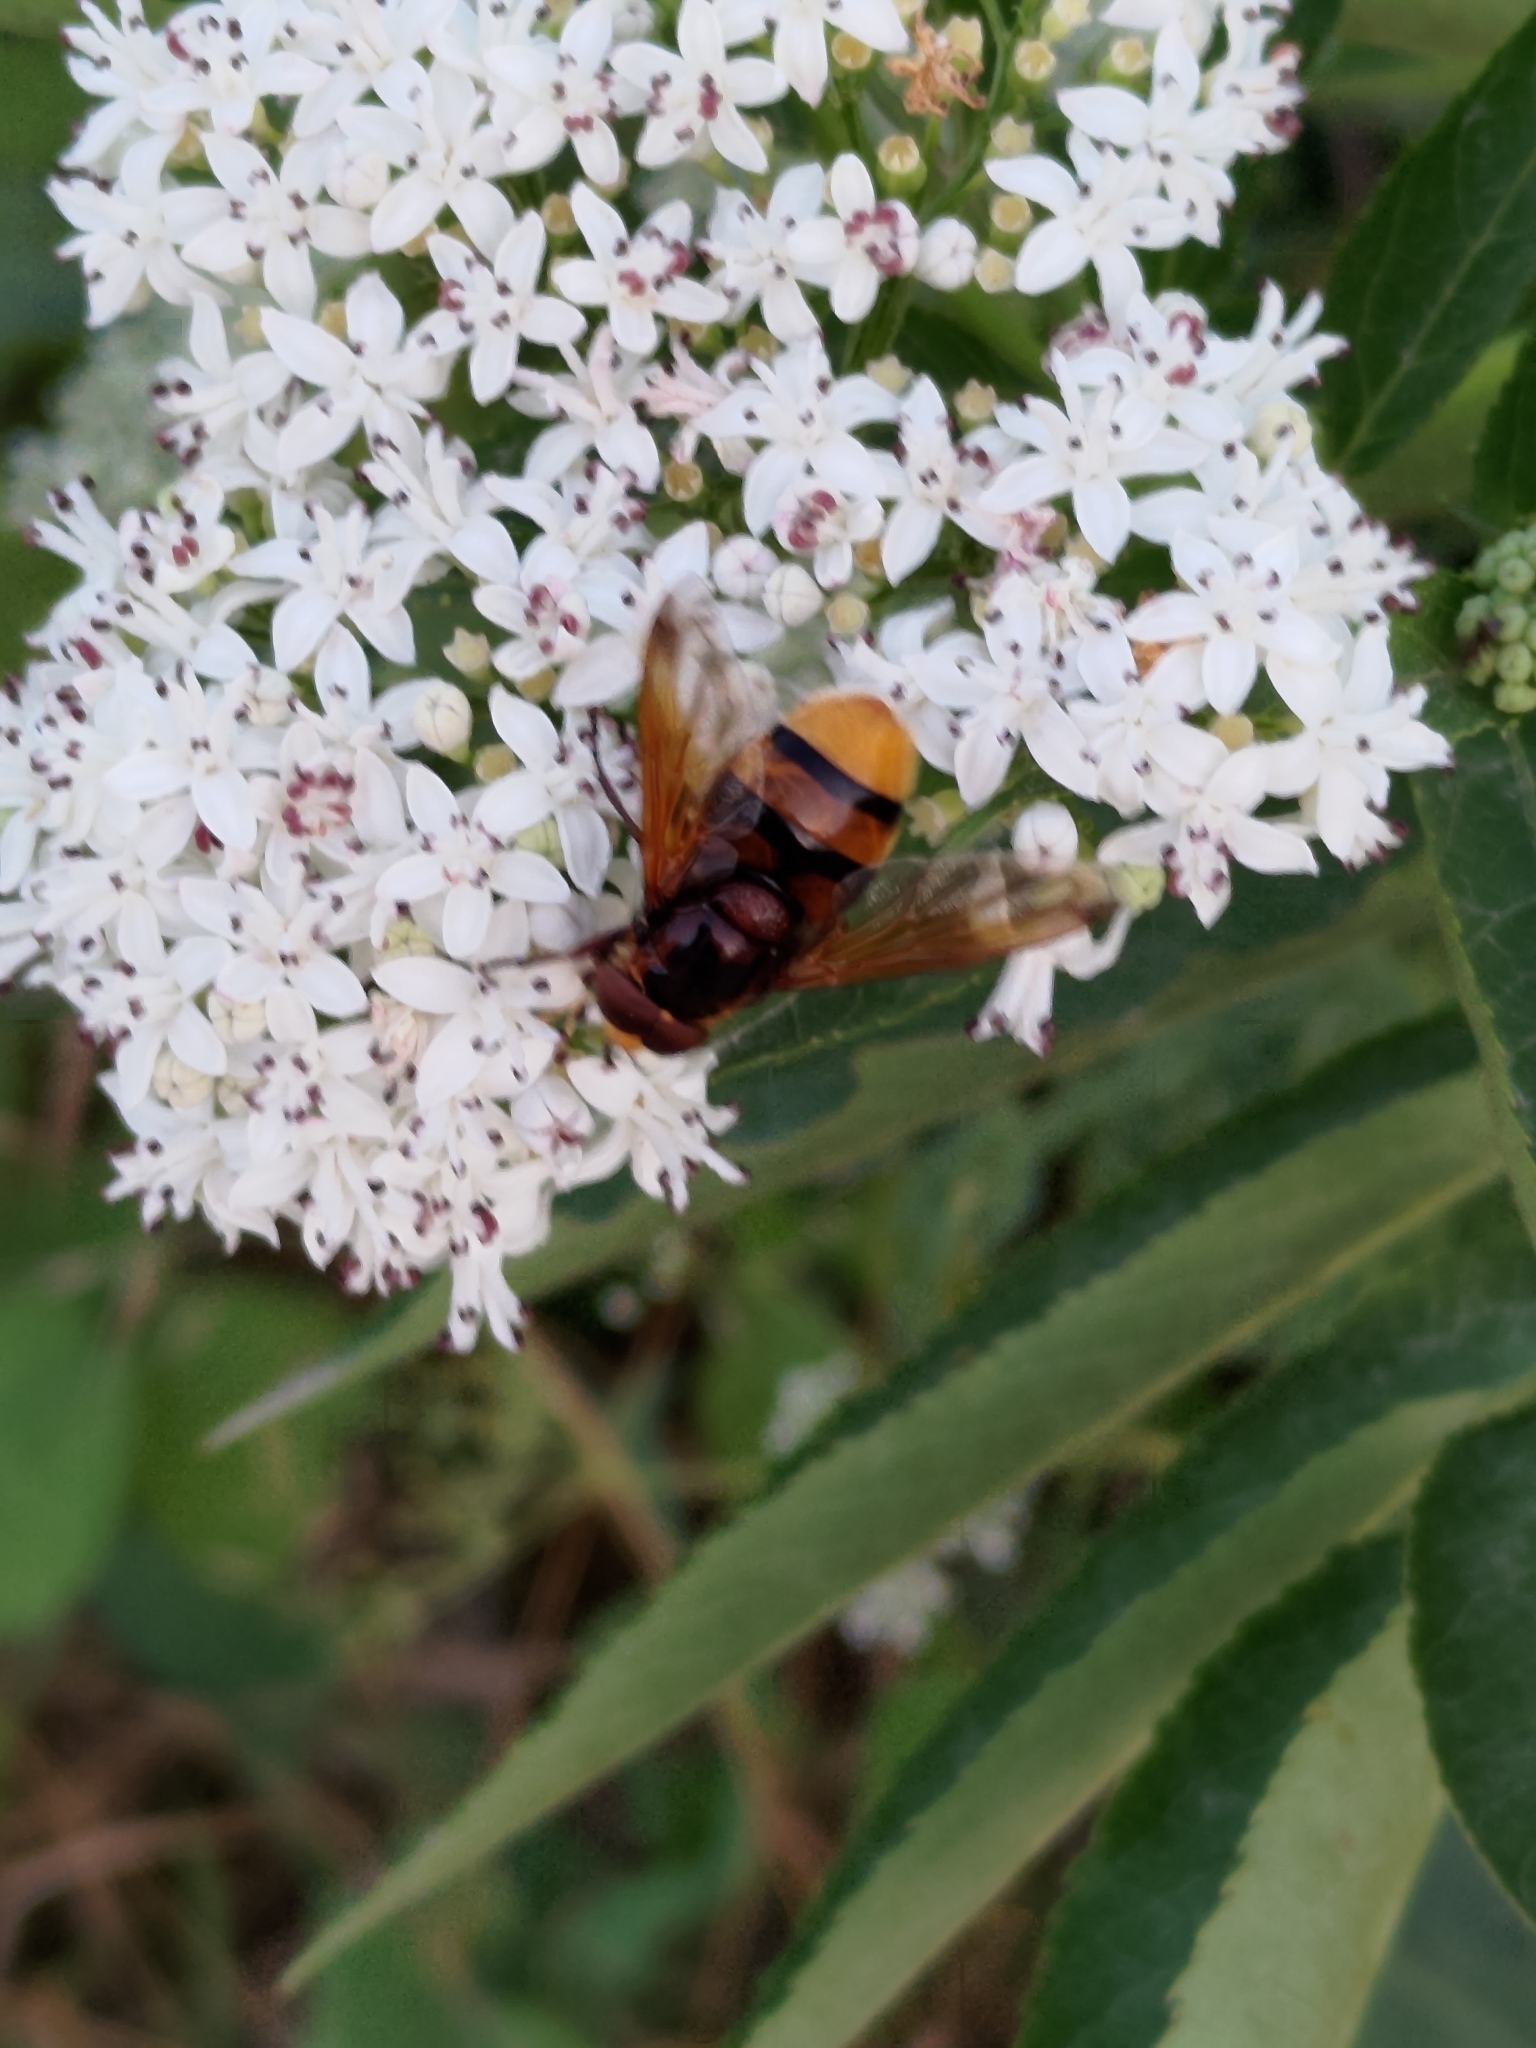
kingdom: Animalia
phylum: Arthropoda
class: Insecta
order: Diptera
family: Syrphidae
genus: Volucella
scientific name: Volucella zonaria
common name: Hornet hoverfly
